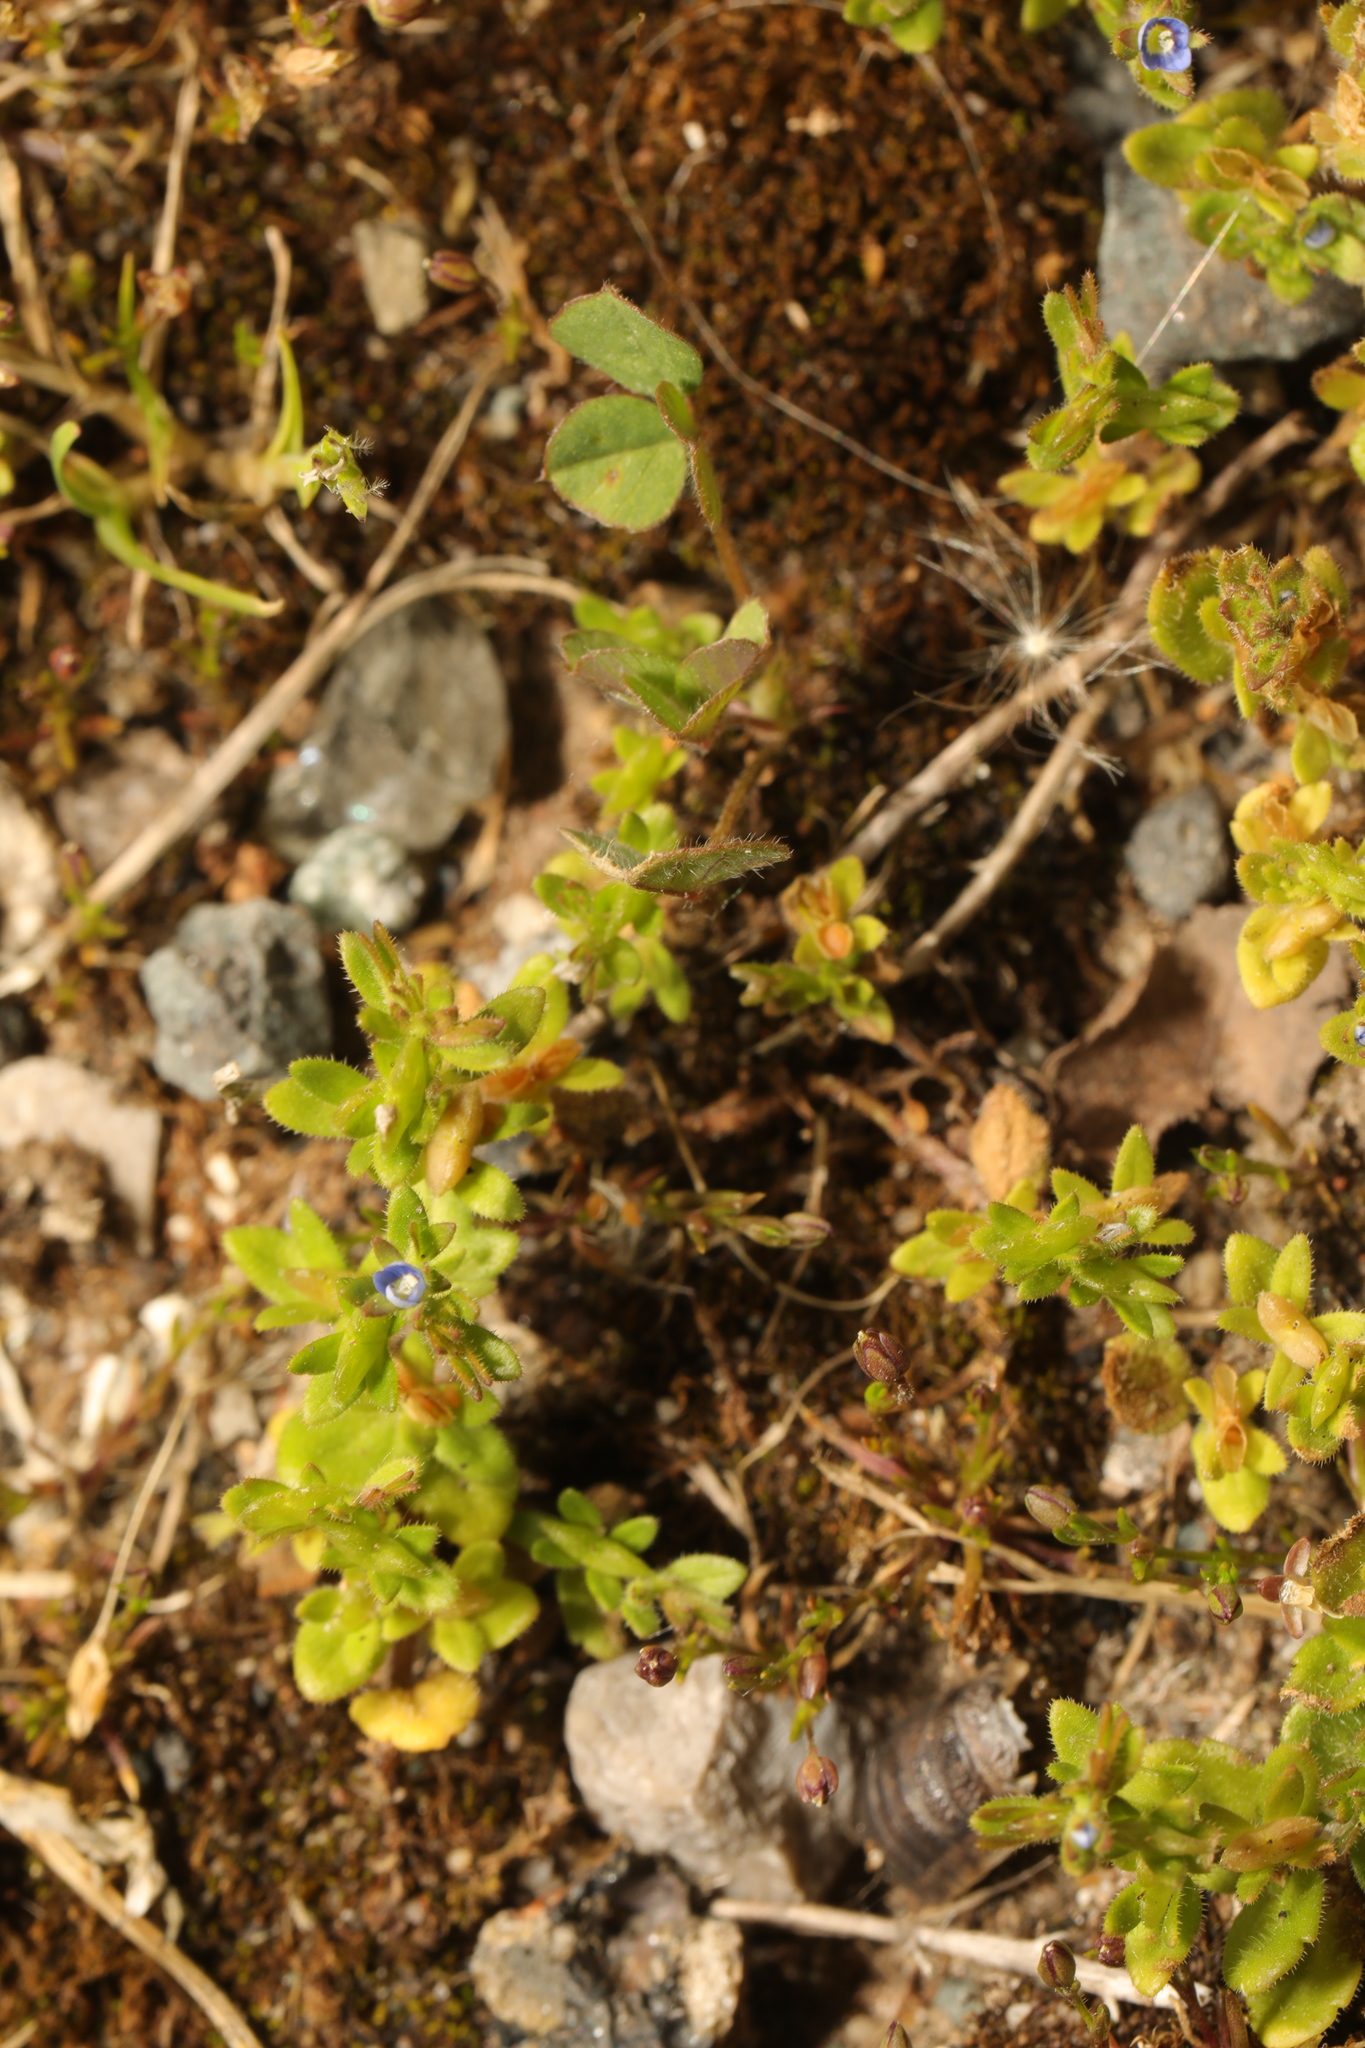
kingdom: Plantae
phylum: Tracheophyta
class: Magnoliopsida
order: Lamiales
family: Plantaginaceae
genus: Veronica
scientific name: Veronica arvensis
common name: Corn speedwell
